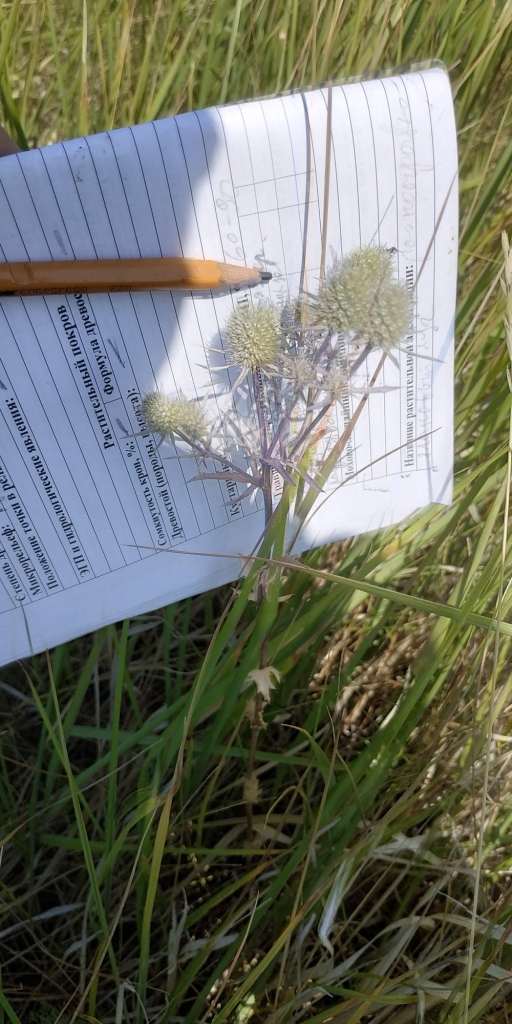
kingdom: Plantae
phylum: Tracheophyta
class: Magnoliopsida
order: Apiales
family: Apiaceae
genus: Eryngium
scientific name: Eryngium planum
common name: Blue eryngo
